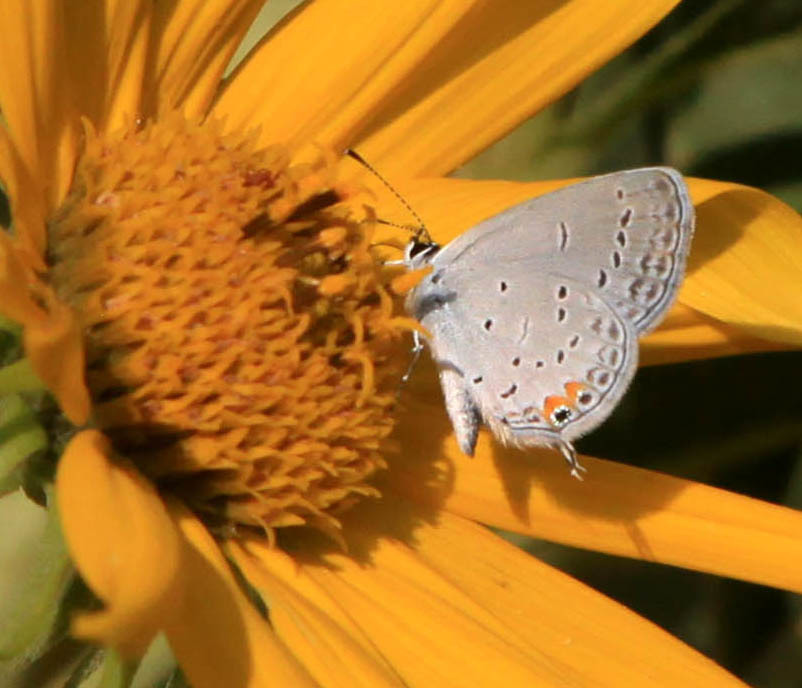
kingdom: Animalia
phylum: Arthropoda
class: Insecta
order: Lepidoptera
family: Lycaenidae
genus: Elkalyce
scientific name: Elkalyce comyntas
